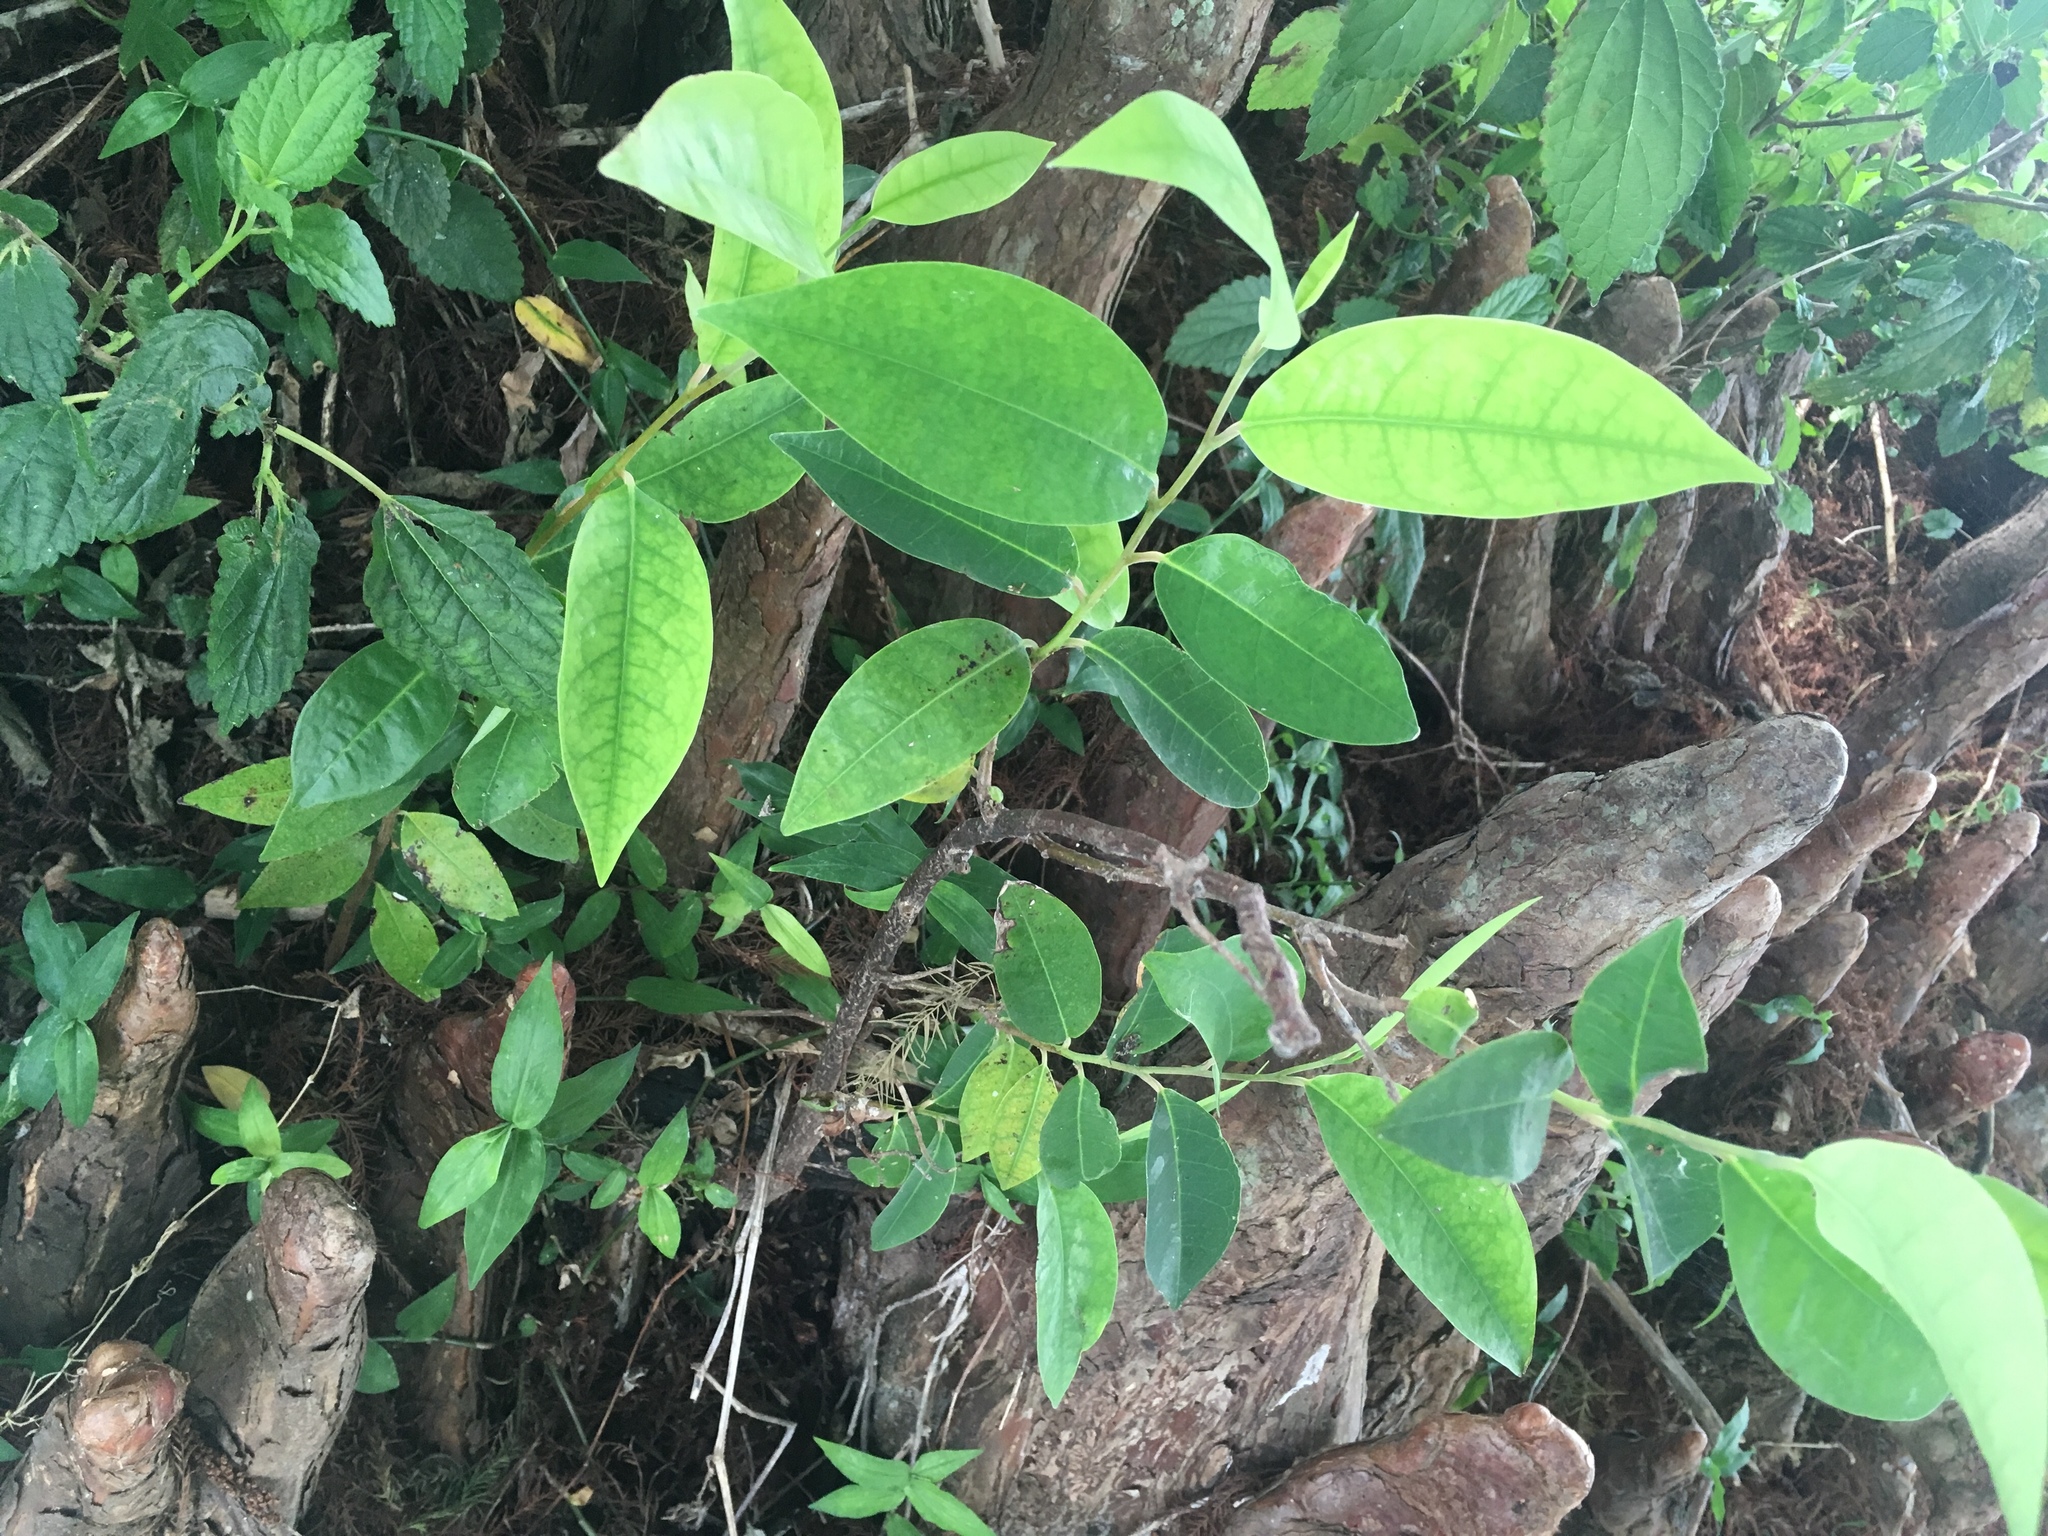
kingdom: Plantae
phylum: Tracheophyta
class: Magnoliopsida
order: Magnoliales
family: Annonaceae
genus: Annona
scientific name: Annona glabra
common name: Monkey apple
